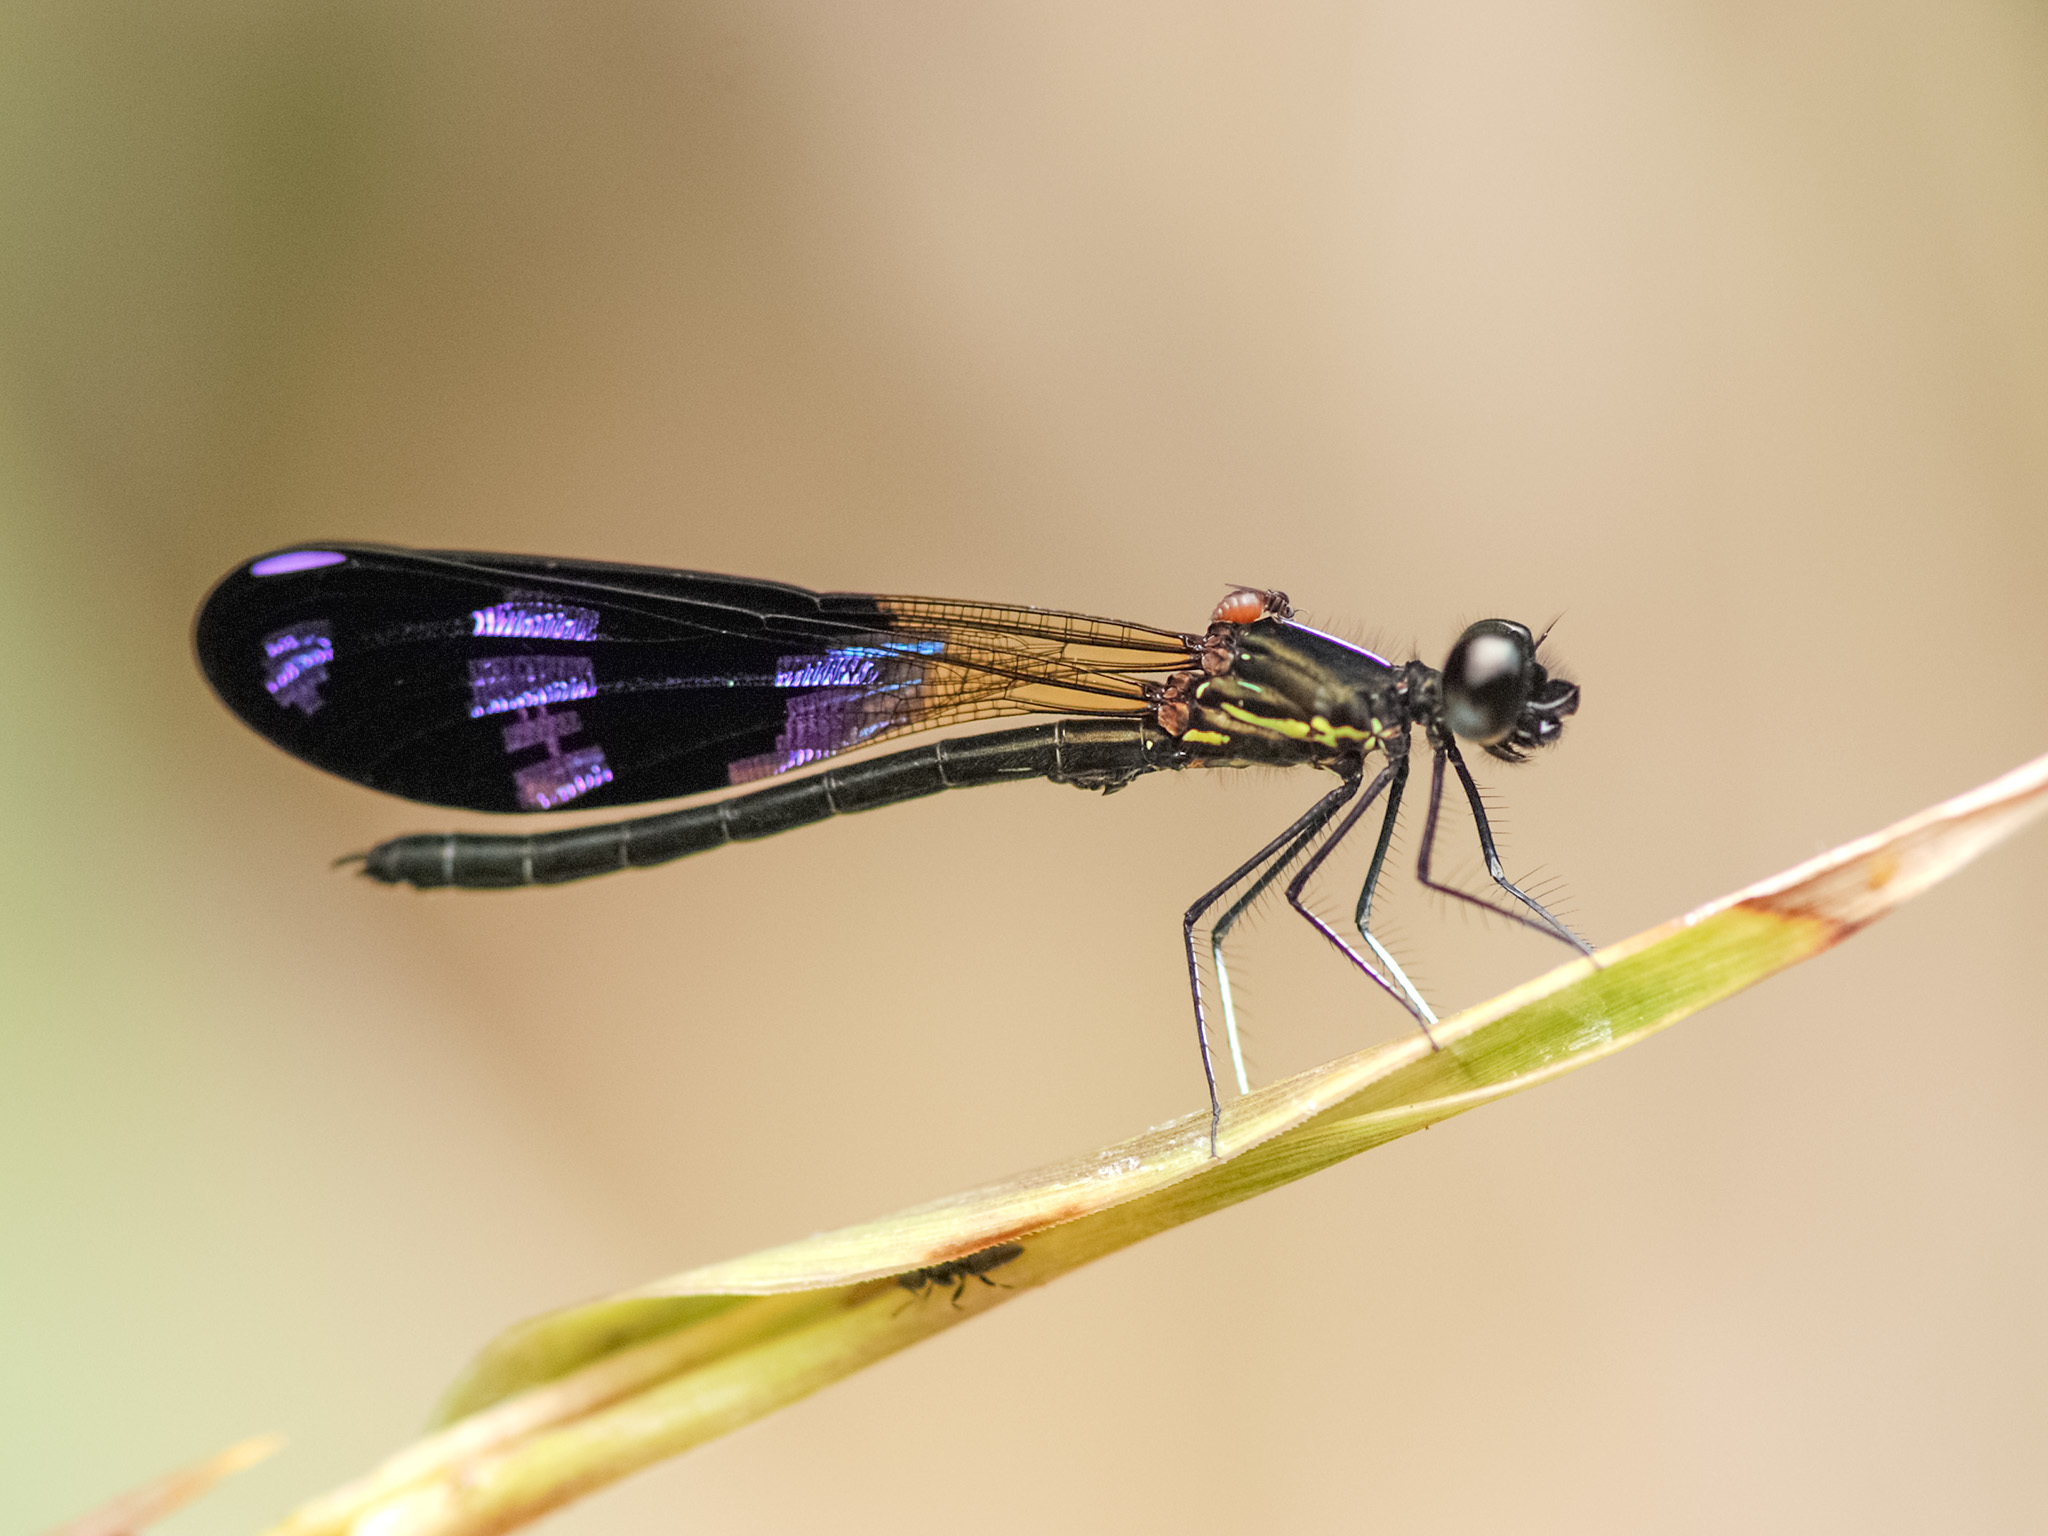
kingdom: Animalia
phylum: Arthropoda
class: Insecta
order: Odonata
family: Chlorocyphidae
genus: Aristocypha
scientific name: Aristocypha fenestrella
